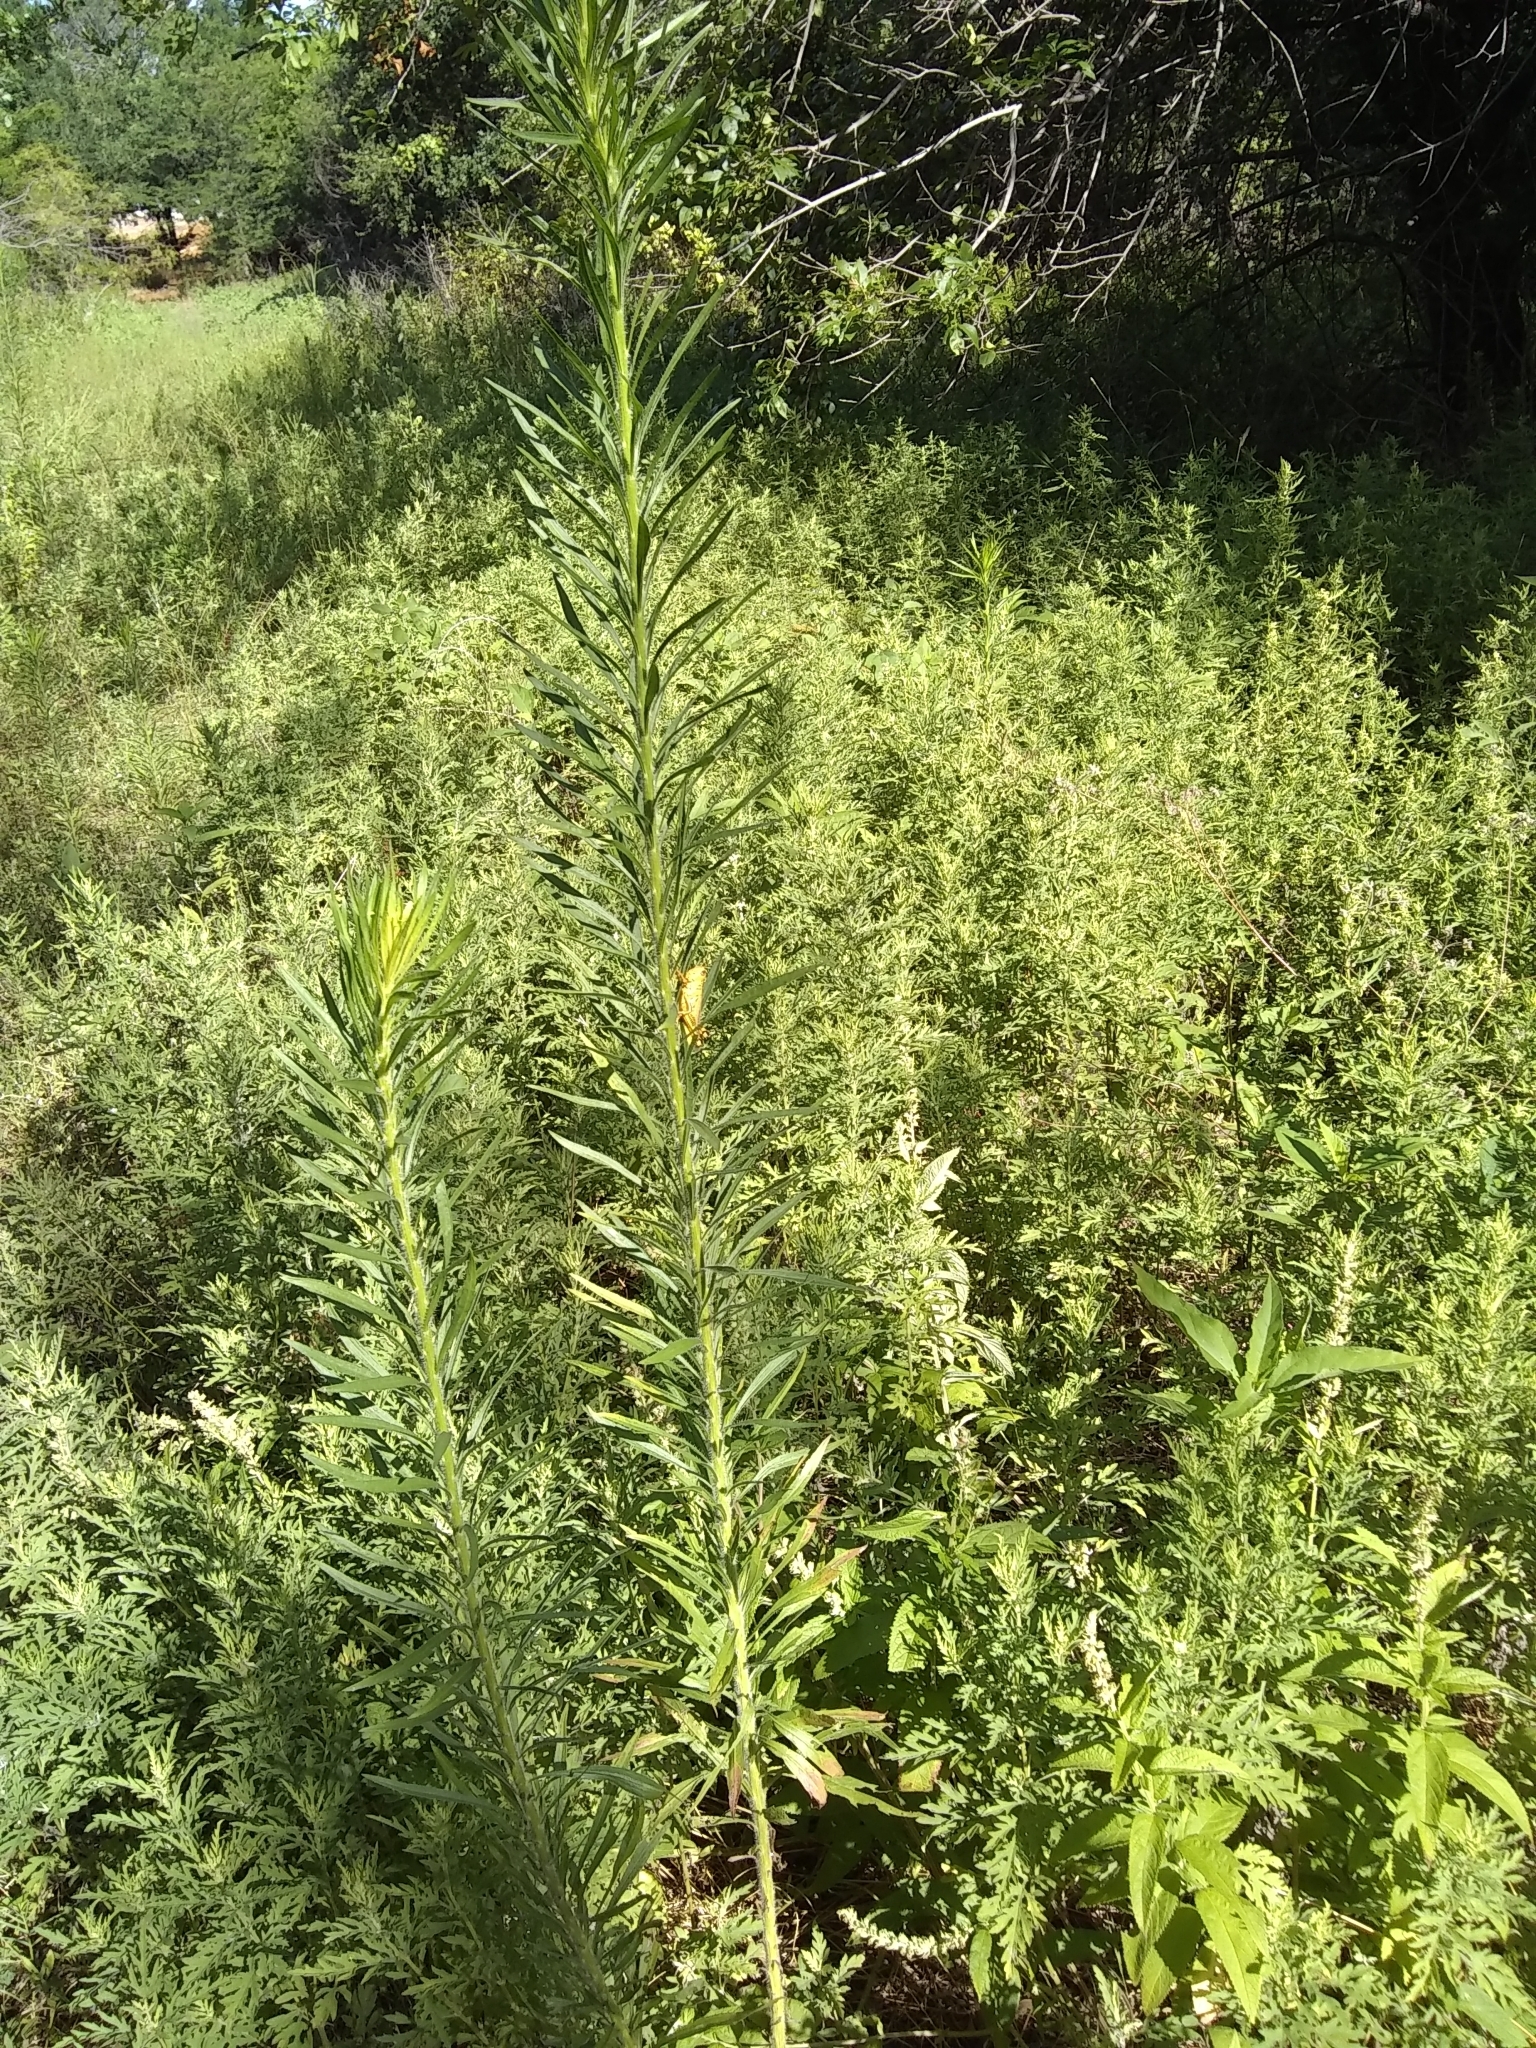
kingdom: Plantae
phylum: Tracheophyta
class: Magnoliopsida
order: Asterales
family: Asteraceae
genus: Erigeron
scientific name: Erigeron canadensis
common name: Canadian fleabane
